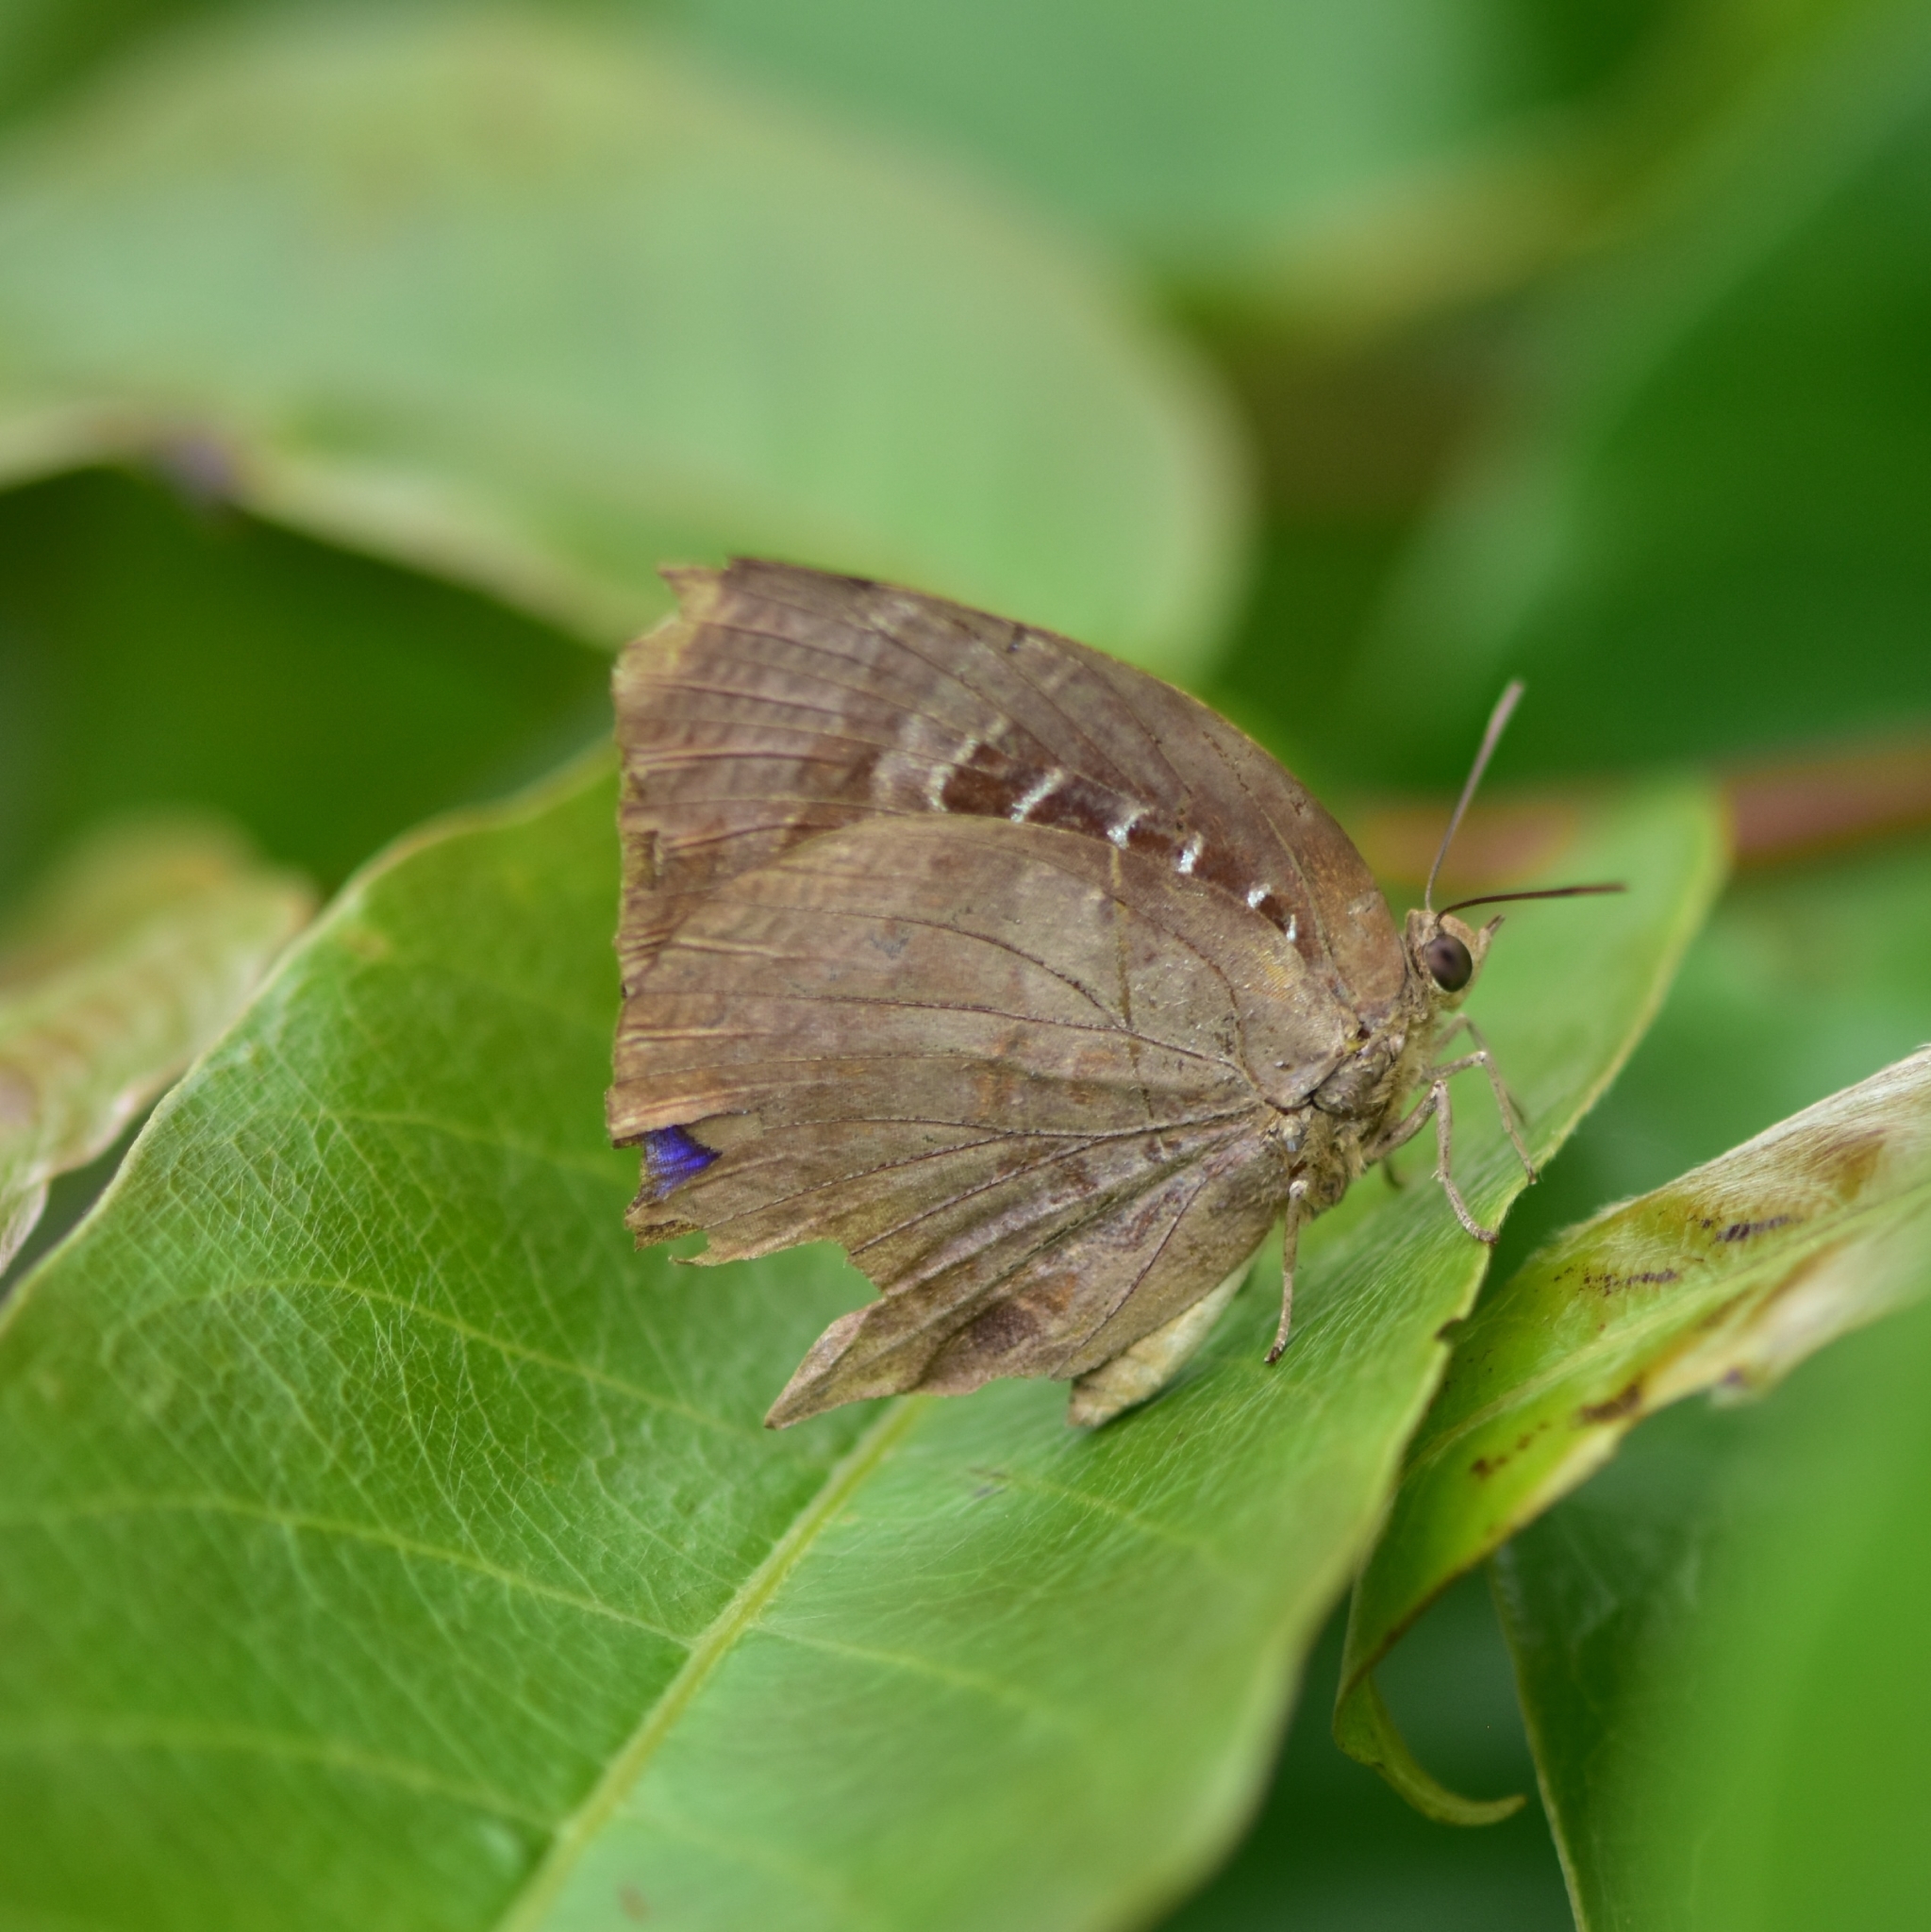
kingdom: Animalia
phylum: Arthropoda
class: Insecta
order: Lepidoptera
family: Lycaenidae
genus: Arhopala
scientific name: Arhopala centaurus
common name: Dull oak-blue
